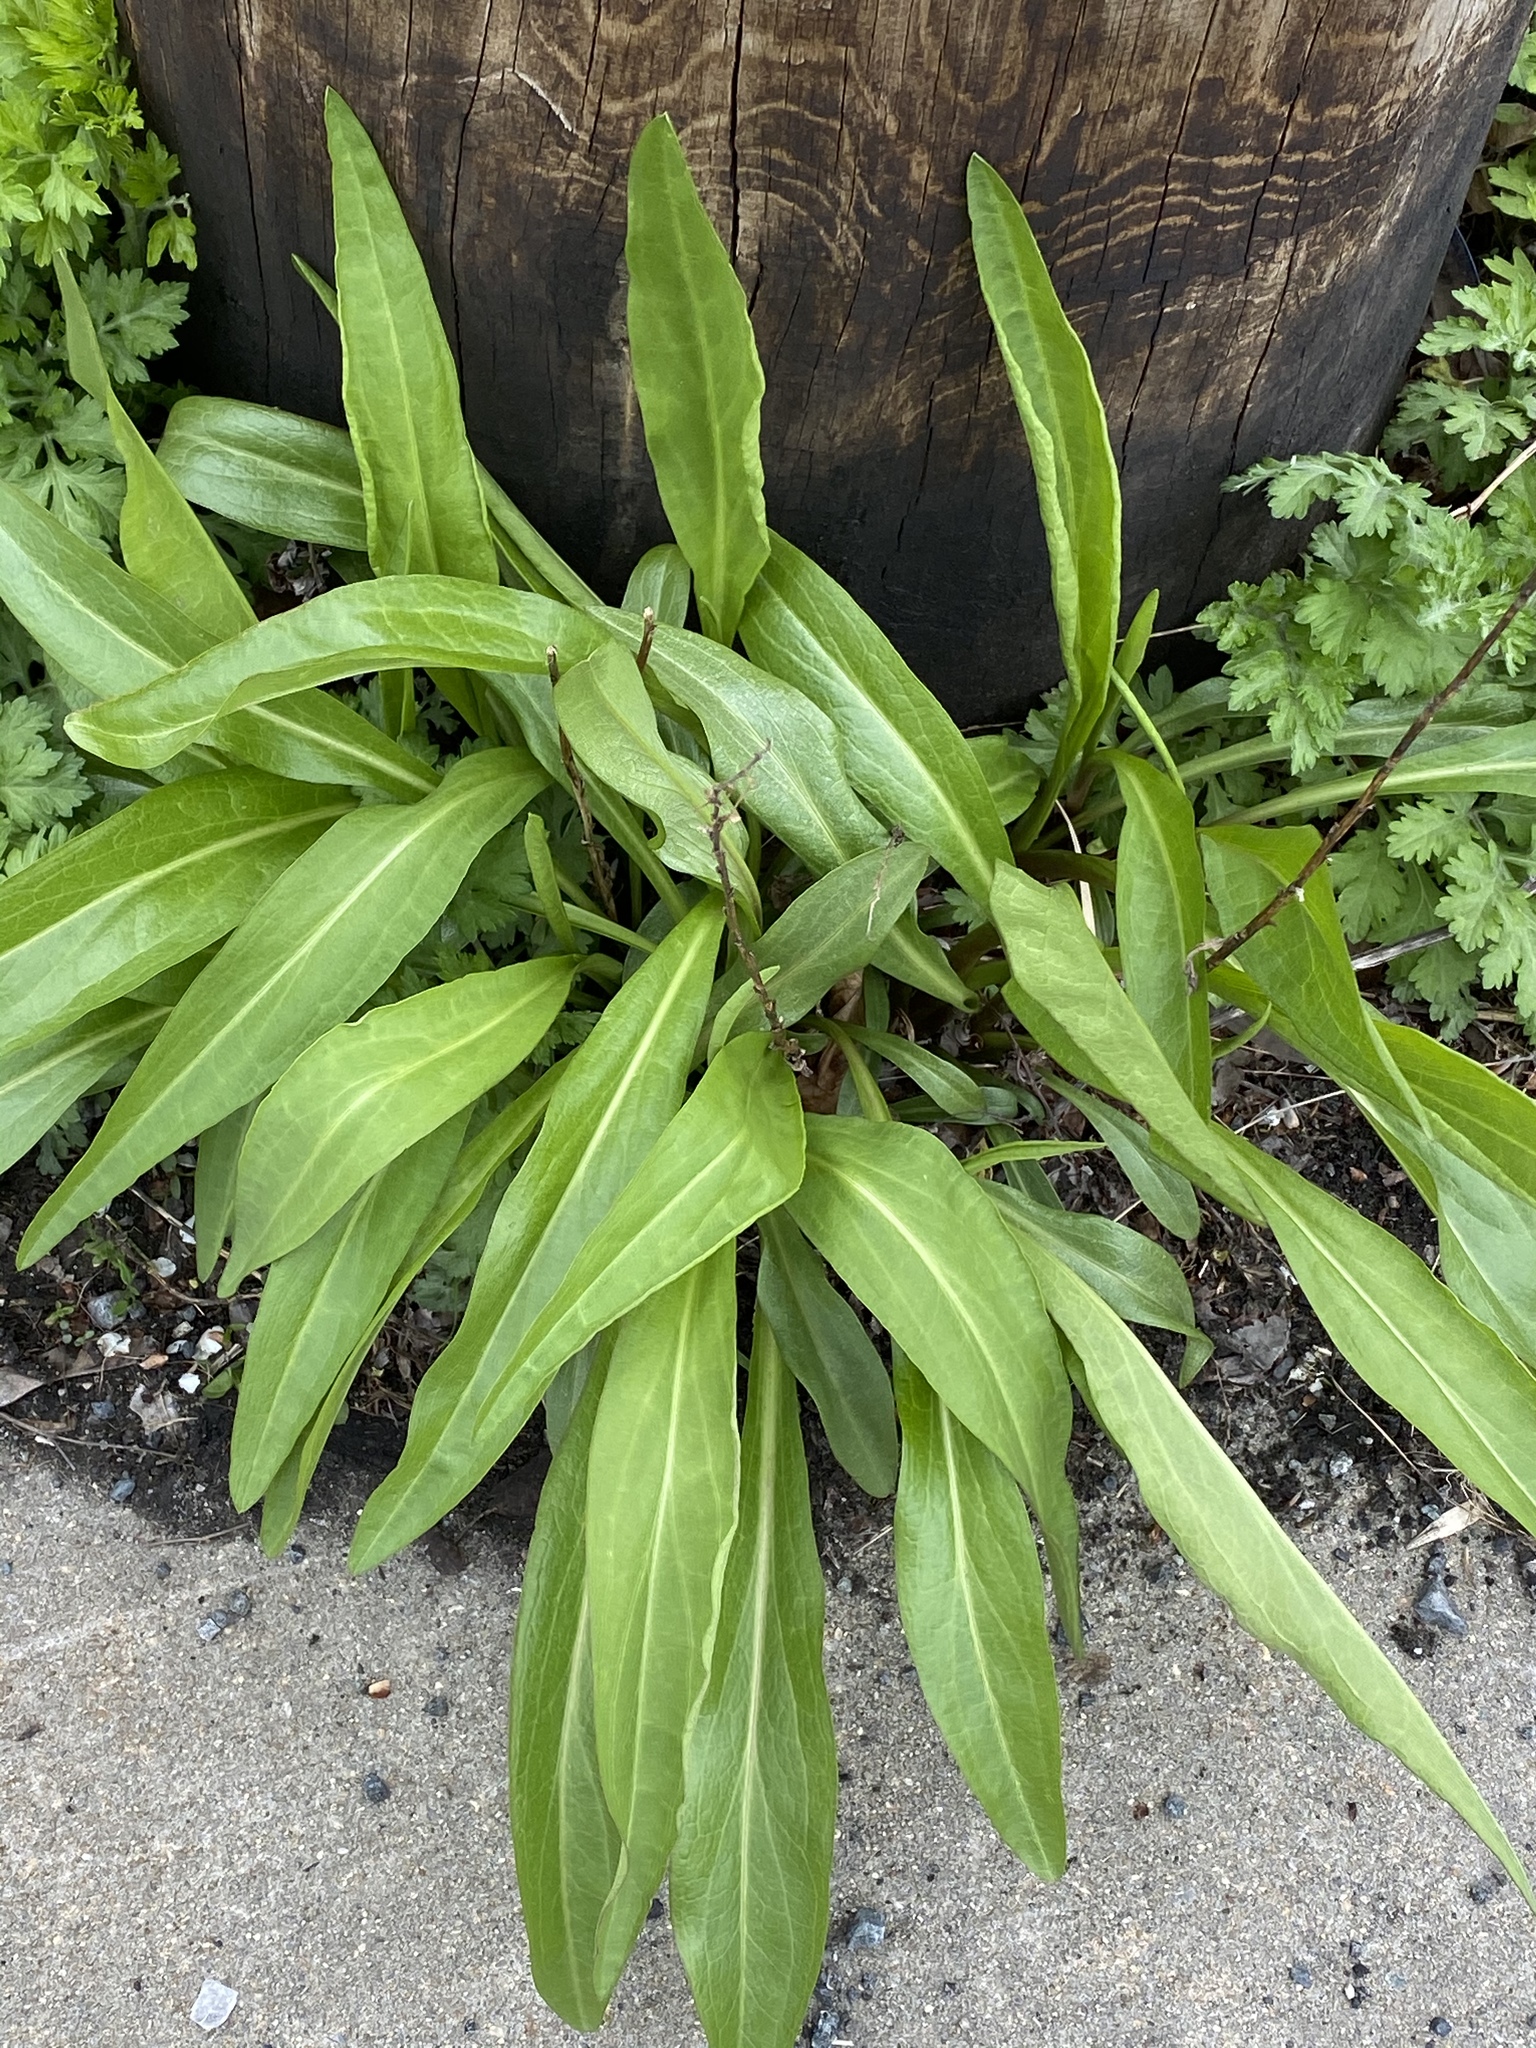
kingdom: Plantae
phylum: Tracheophyta
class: Magnoliopsida
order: Asterales
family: Asteraceae
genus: Solidago
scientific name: Solidago sempervirens
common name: Salt-marsh goldenrod
